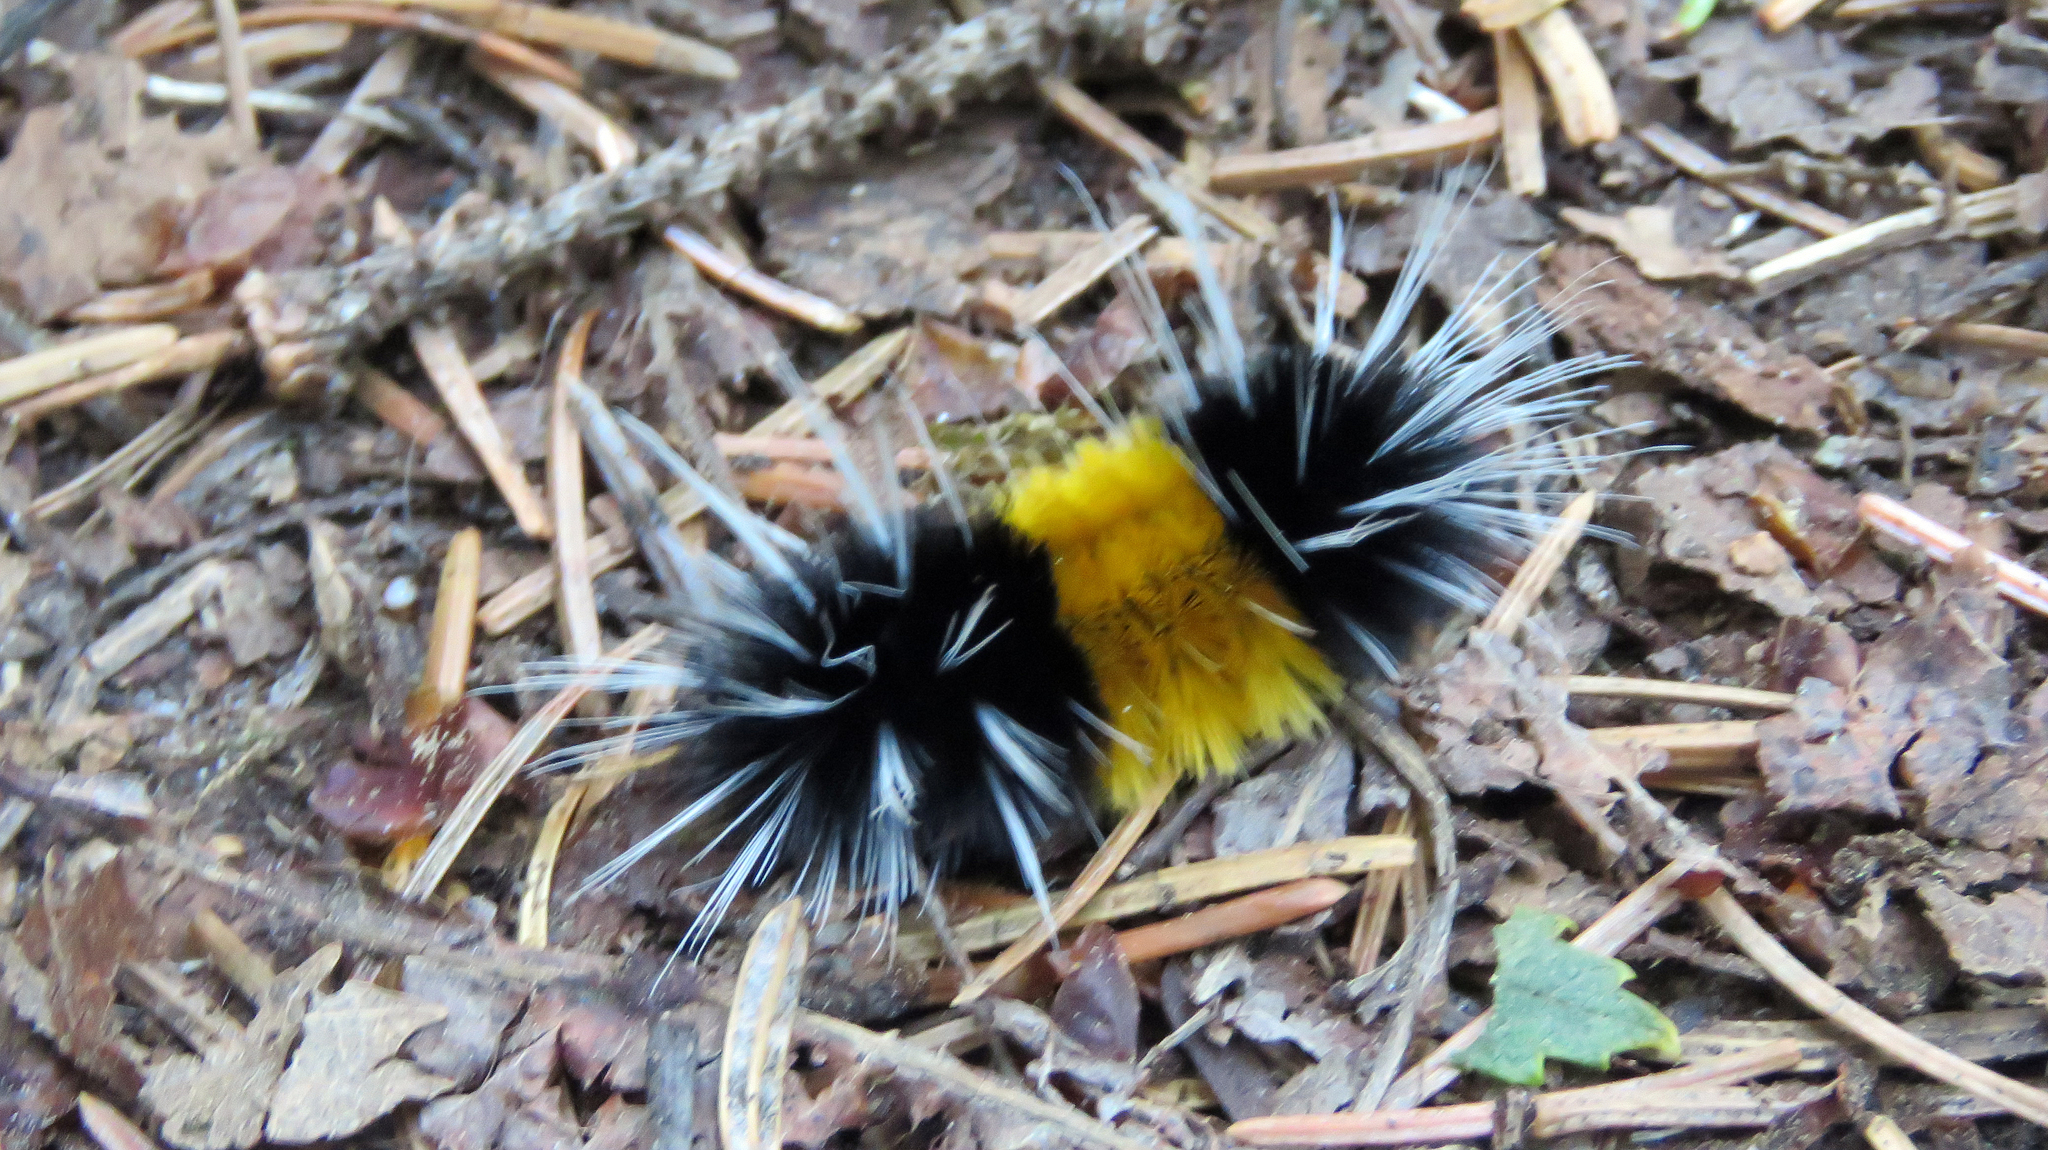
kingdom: Animalia
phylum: Arthropoda
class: Insecta
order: Lepidoptera
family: Erebidae
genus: Lophocampa
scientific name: Lophocampa maculata
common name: Spotted tussock moth
